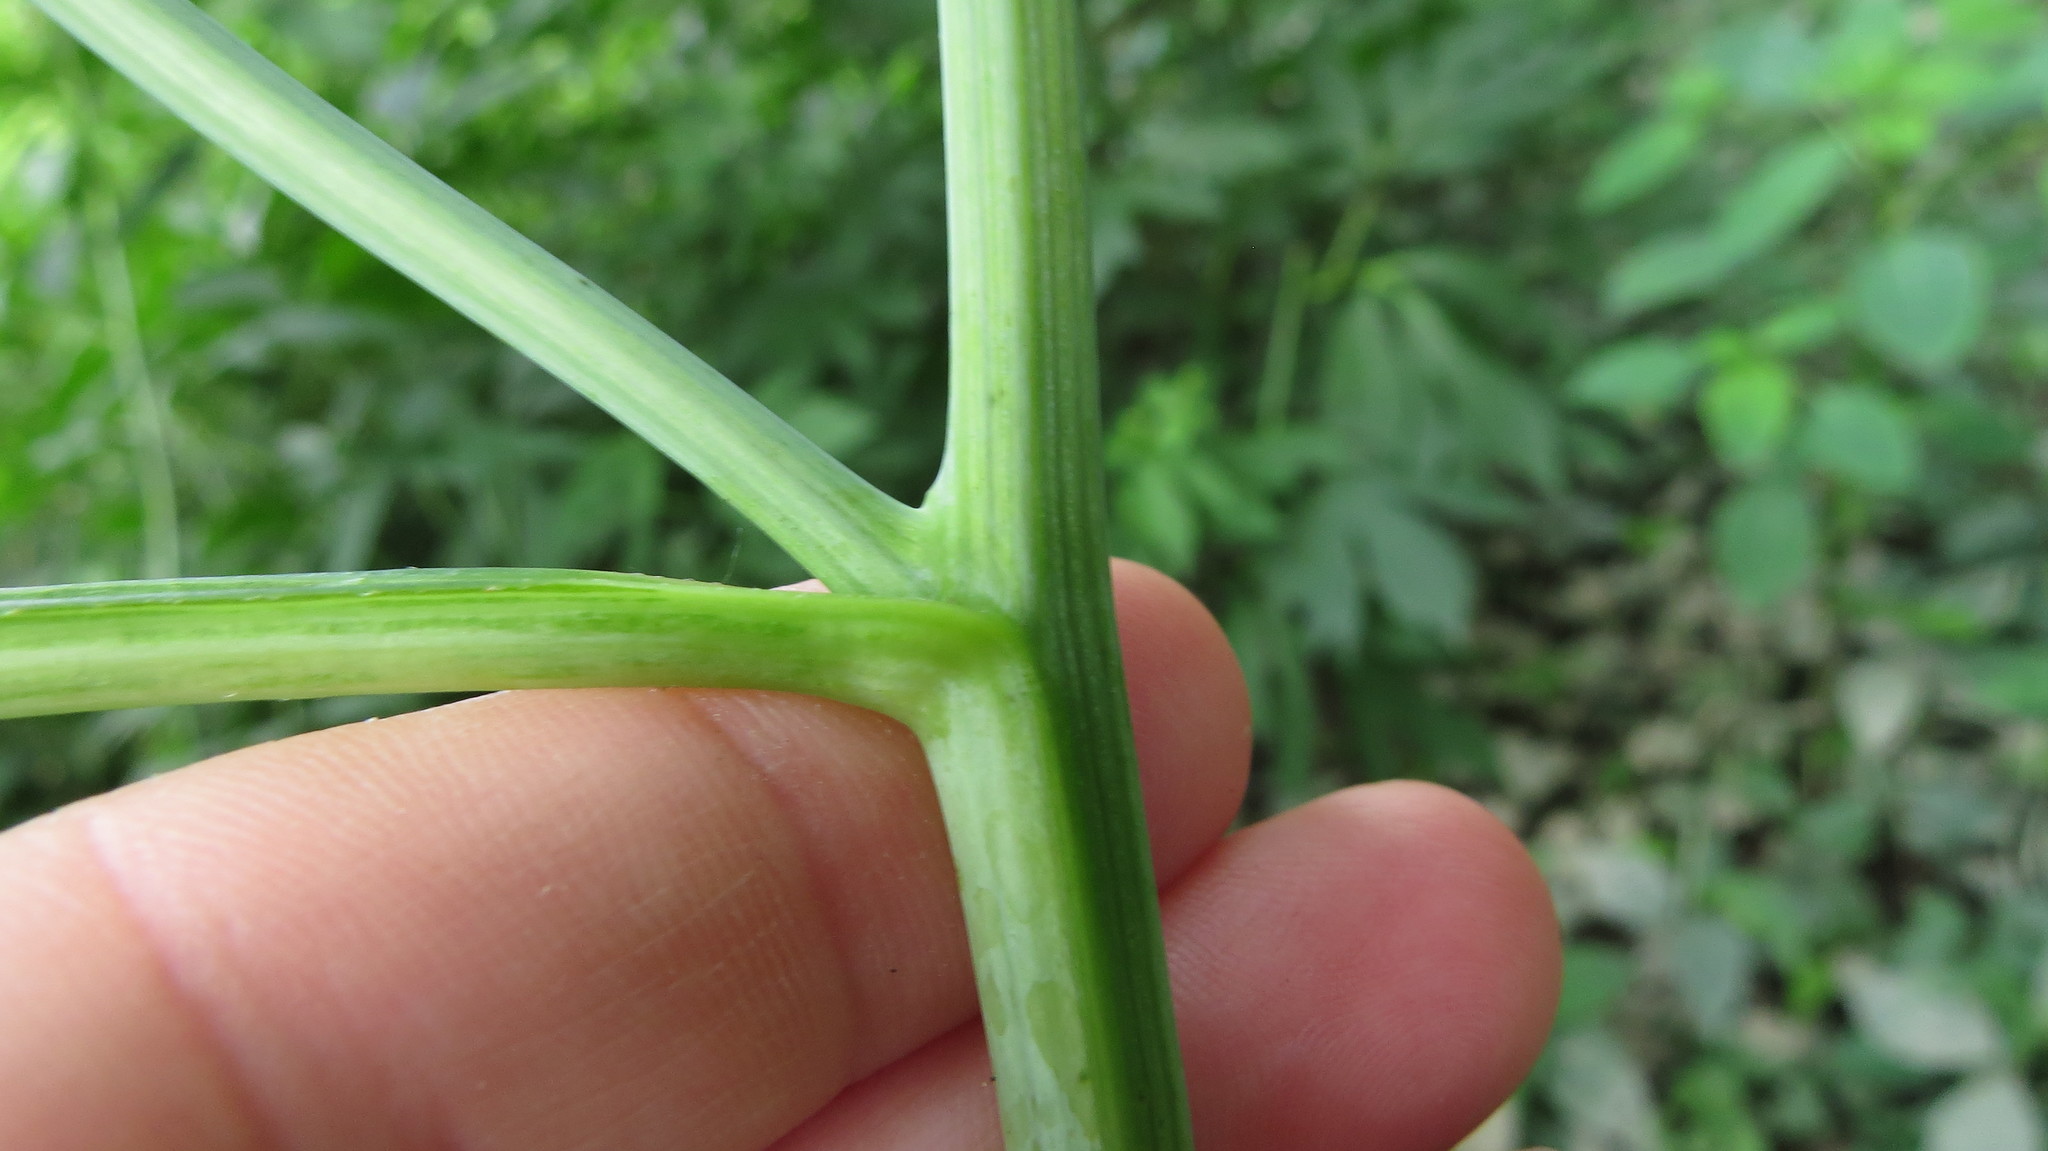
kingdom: Plantae
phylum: Tracheophyta
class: Magnoliopsida
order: Asterales
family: Asteraceae
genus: Rudbeckia
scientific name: Rudbeckia laciniata
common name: Coneflower
